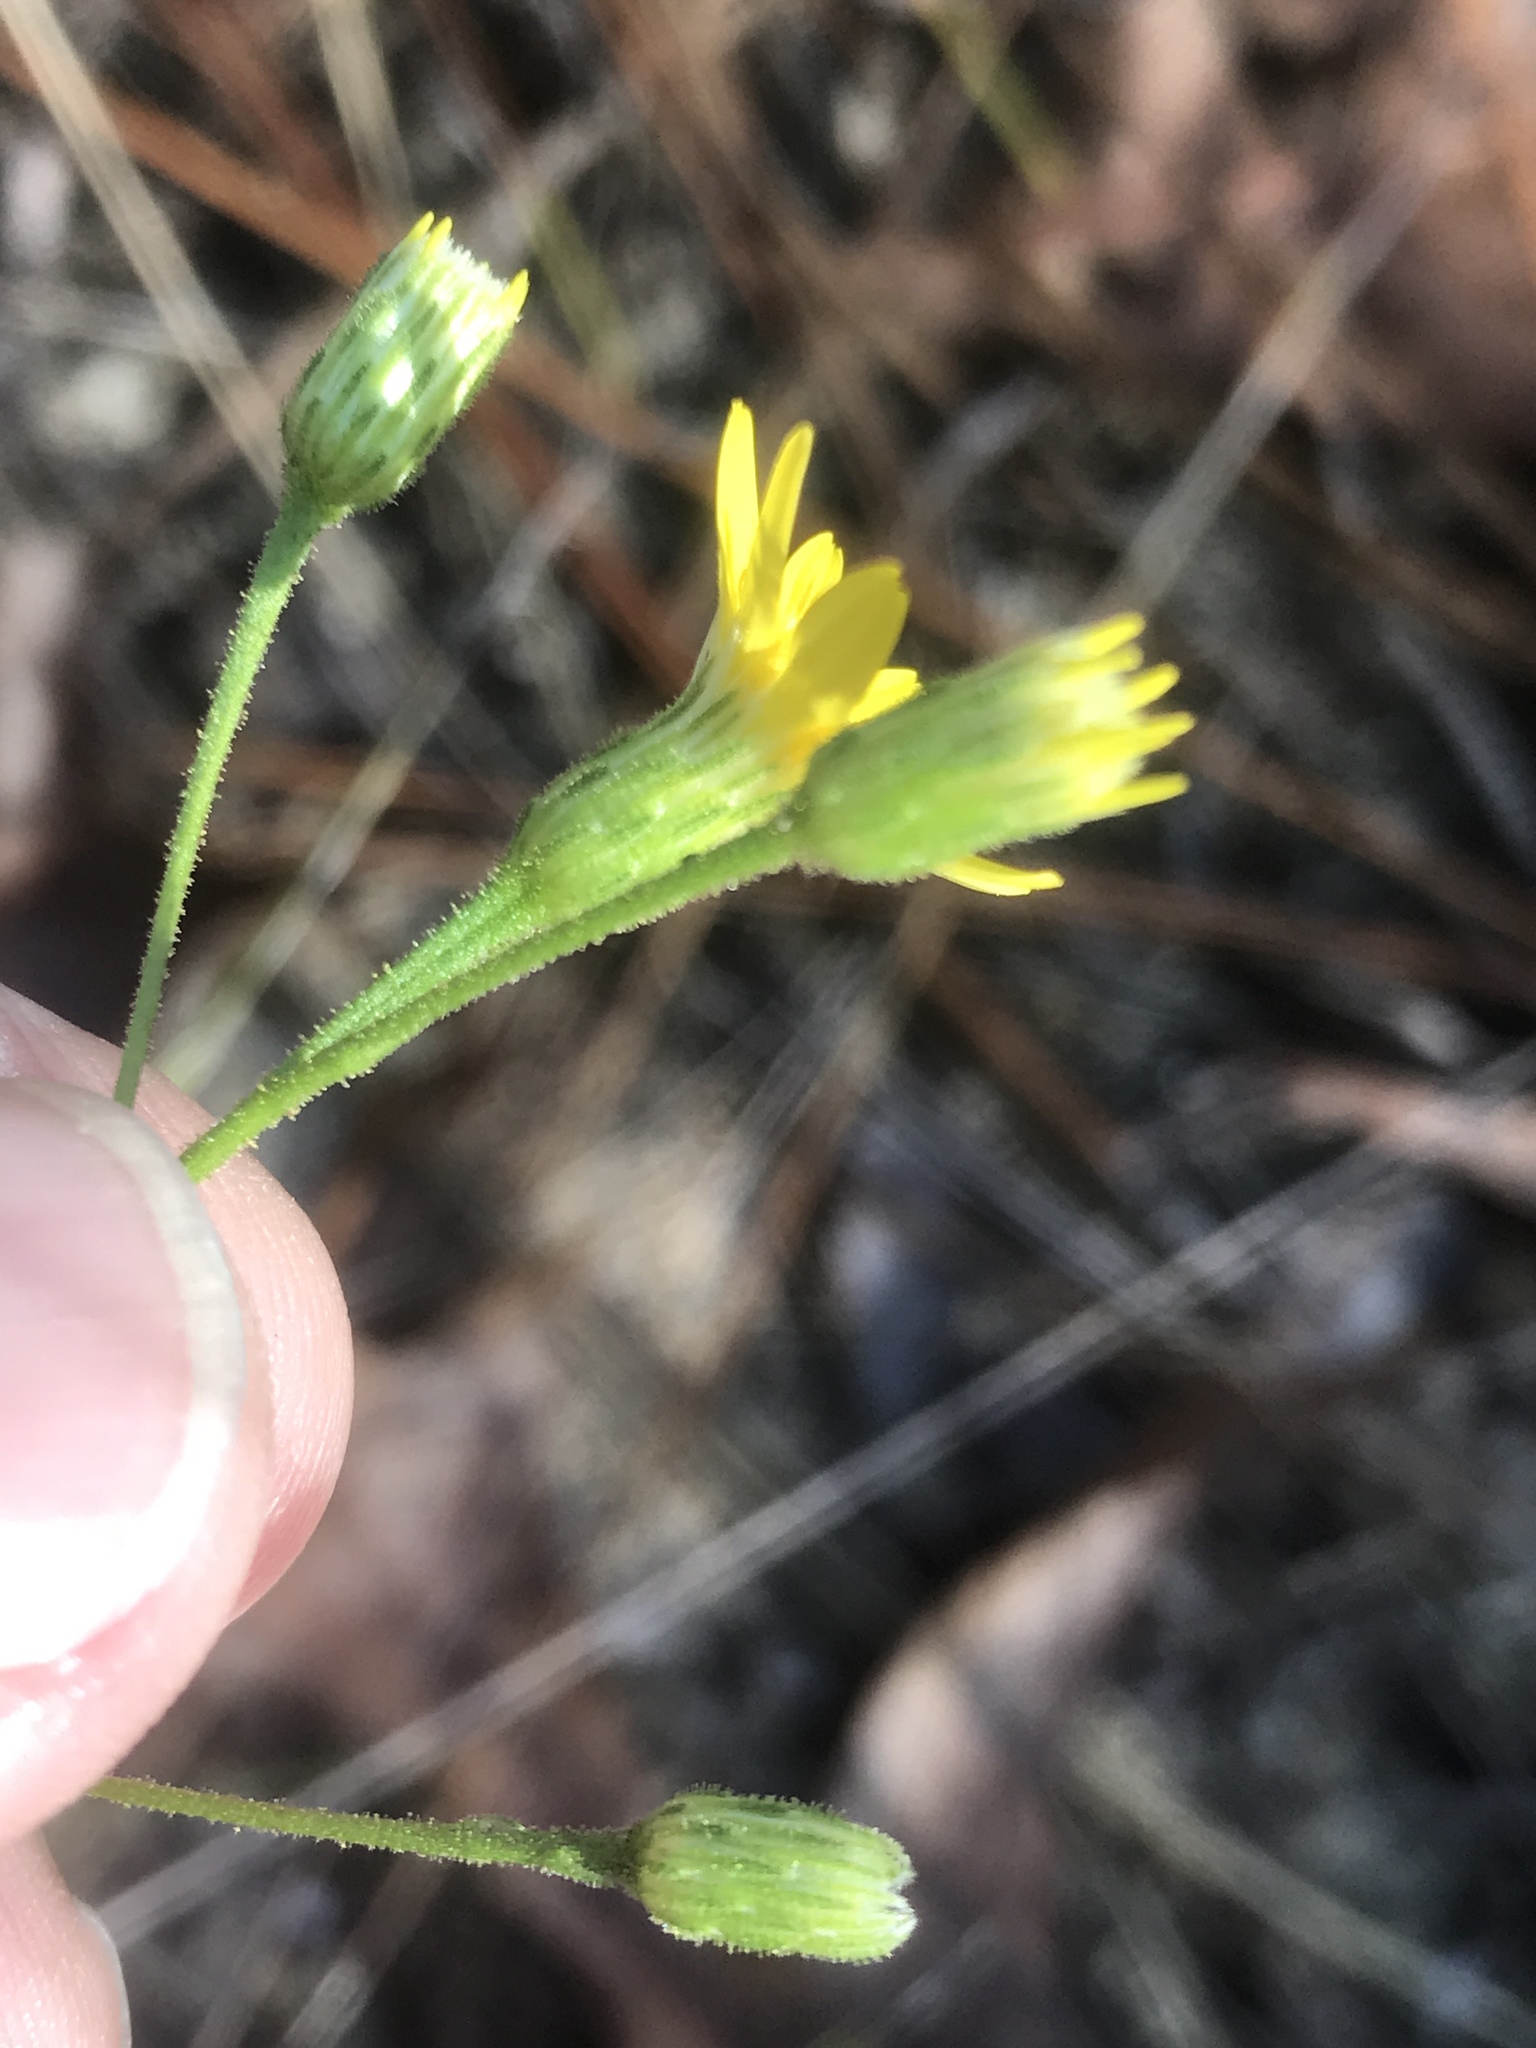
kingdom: Plantae
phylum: Tracheophyta
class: Magnoliopsida
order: Asterales
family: Asteraceae
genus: Pityopsis
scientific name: Pityopsis aspera
